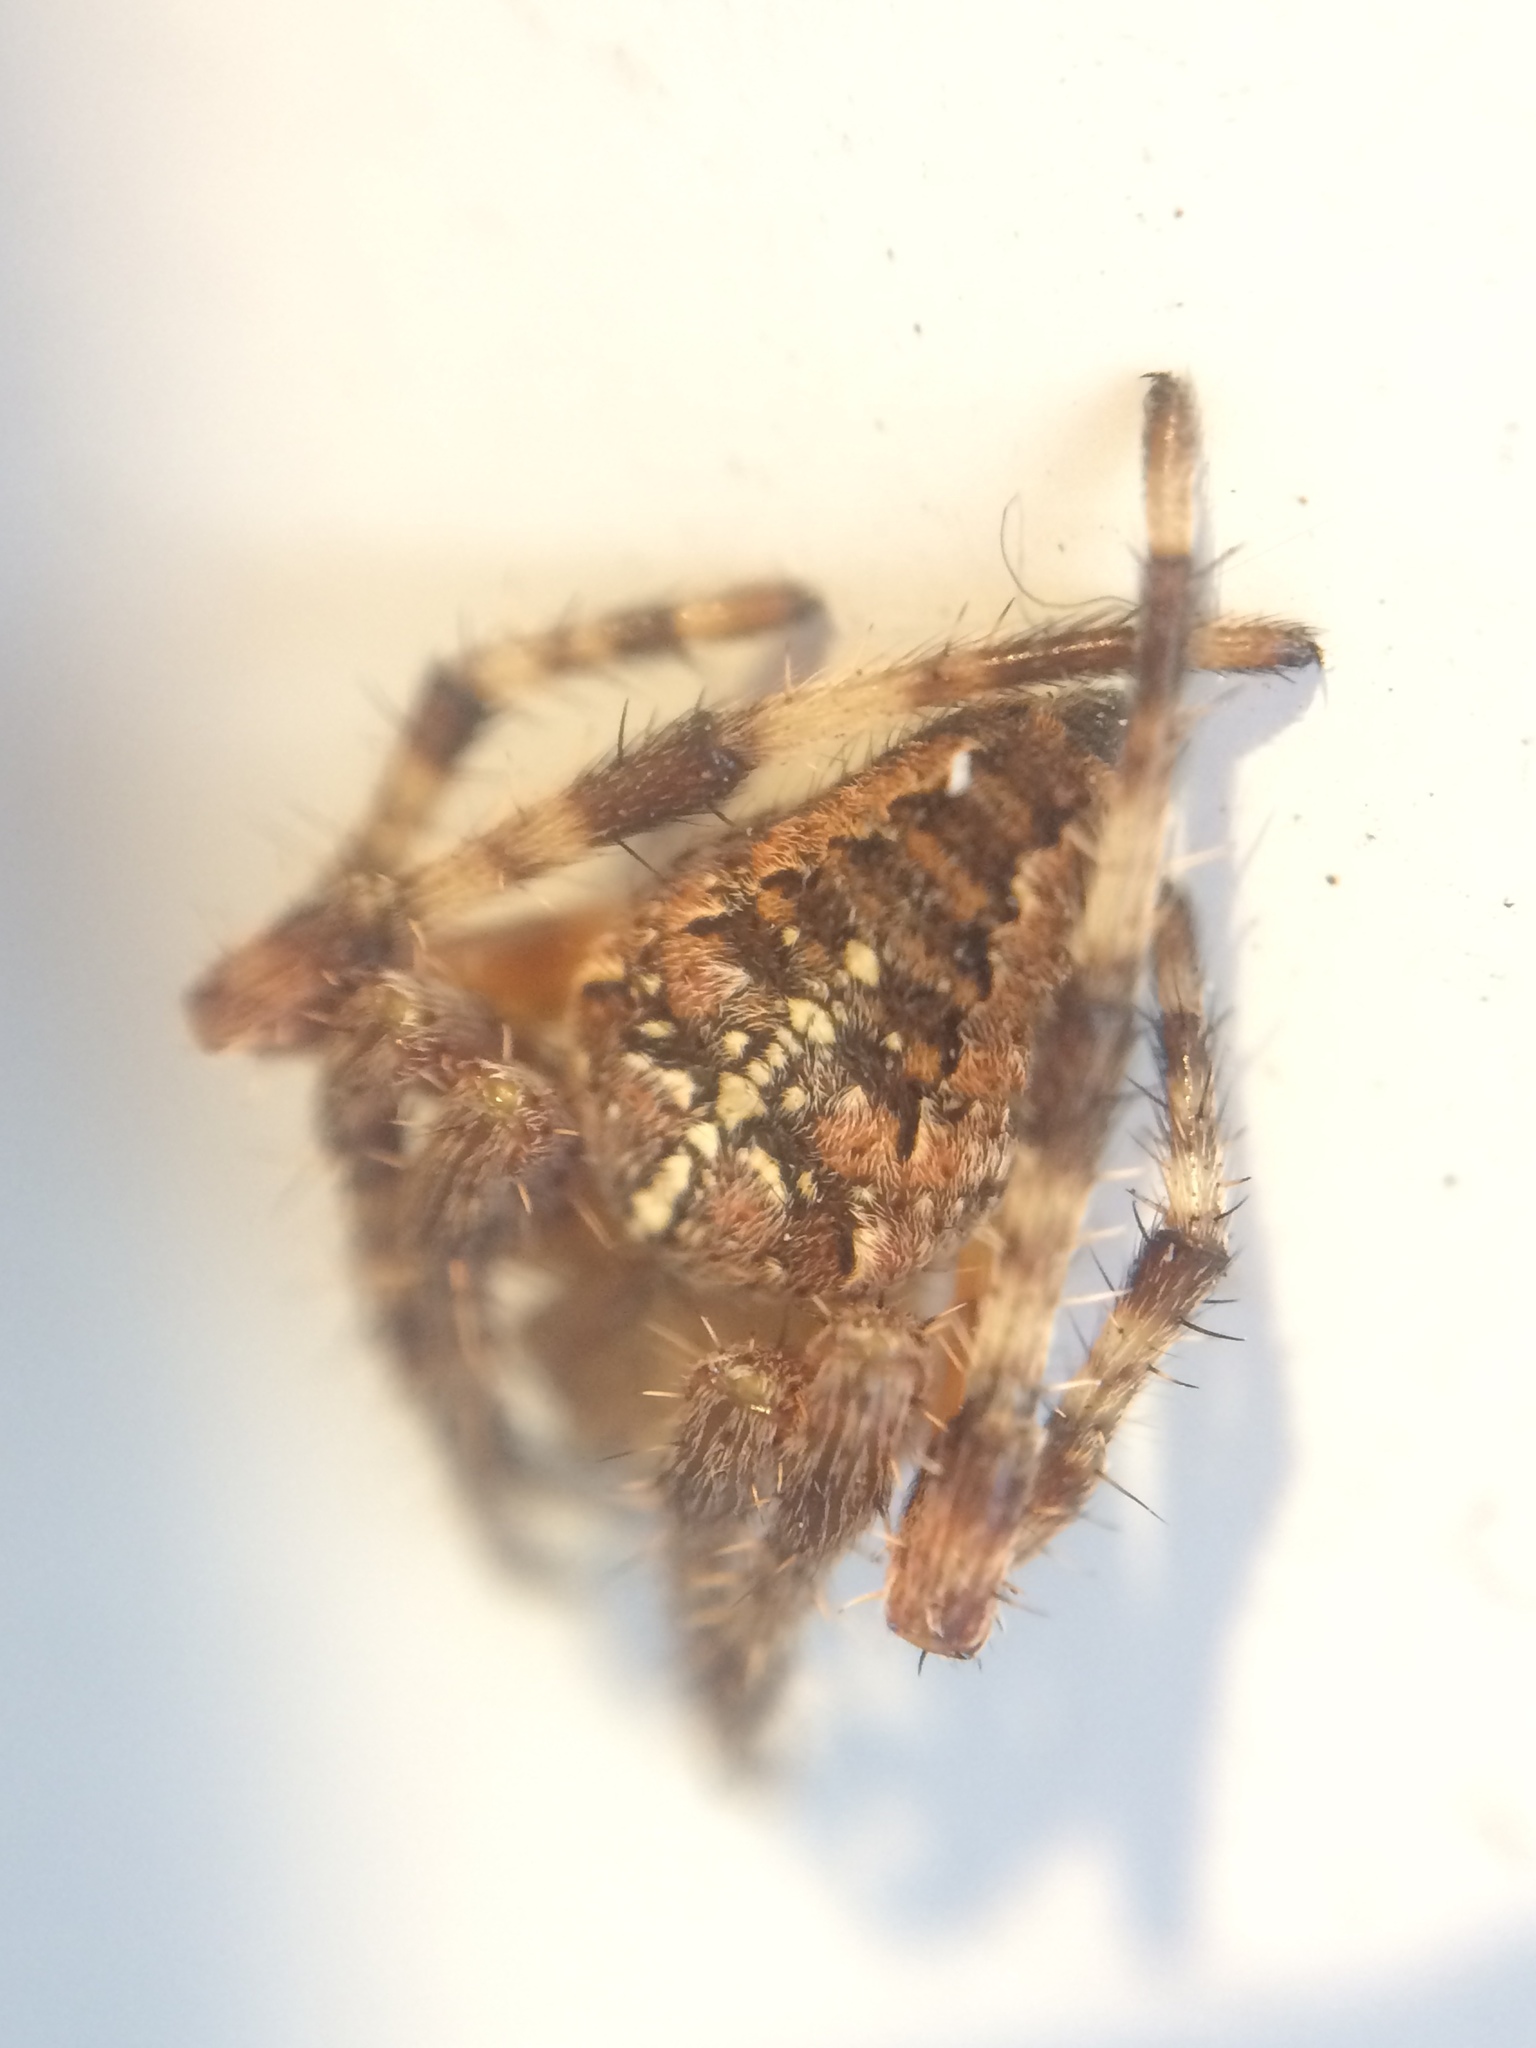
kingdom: Animalia
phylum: Arthropoda
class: Arachnida
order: Araneae
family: Araneidae
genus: Araneus
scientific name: Araneus diadematus
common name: Cross orbweaver
